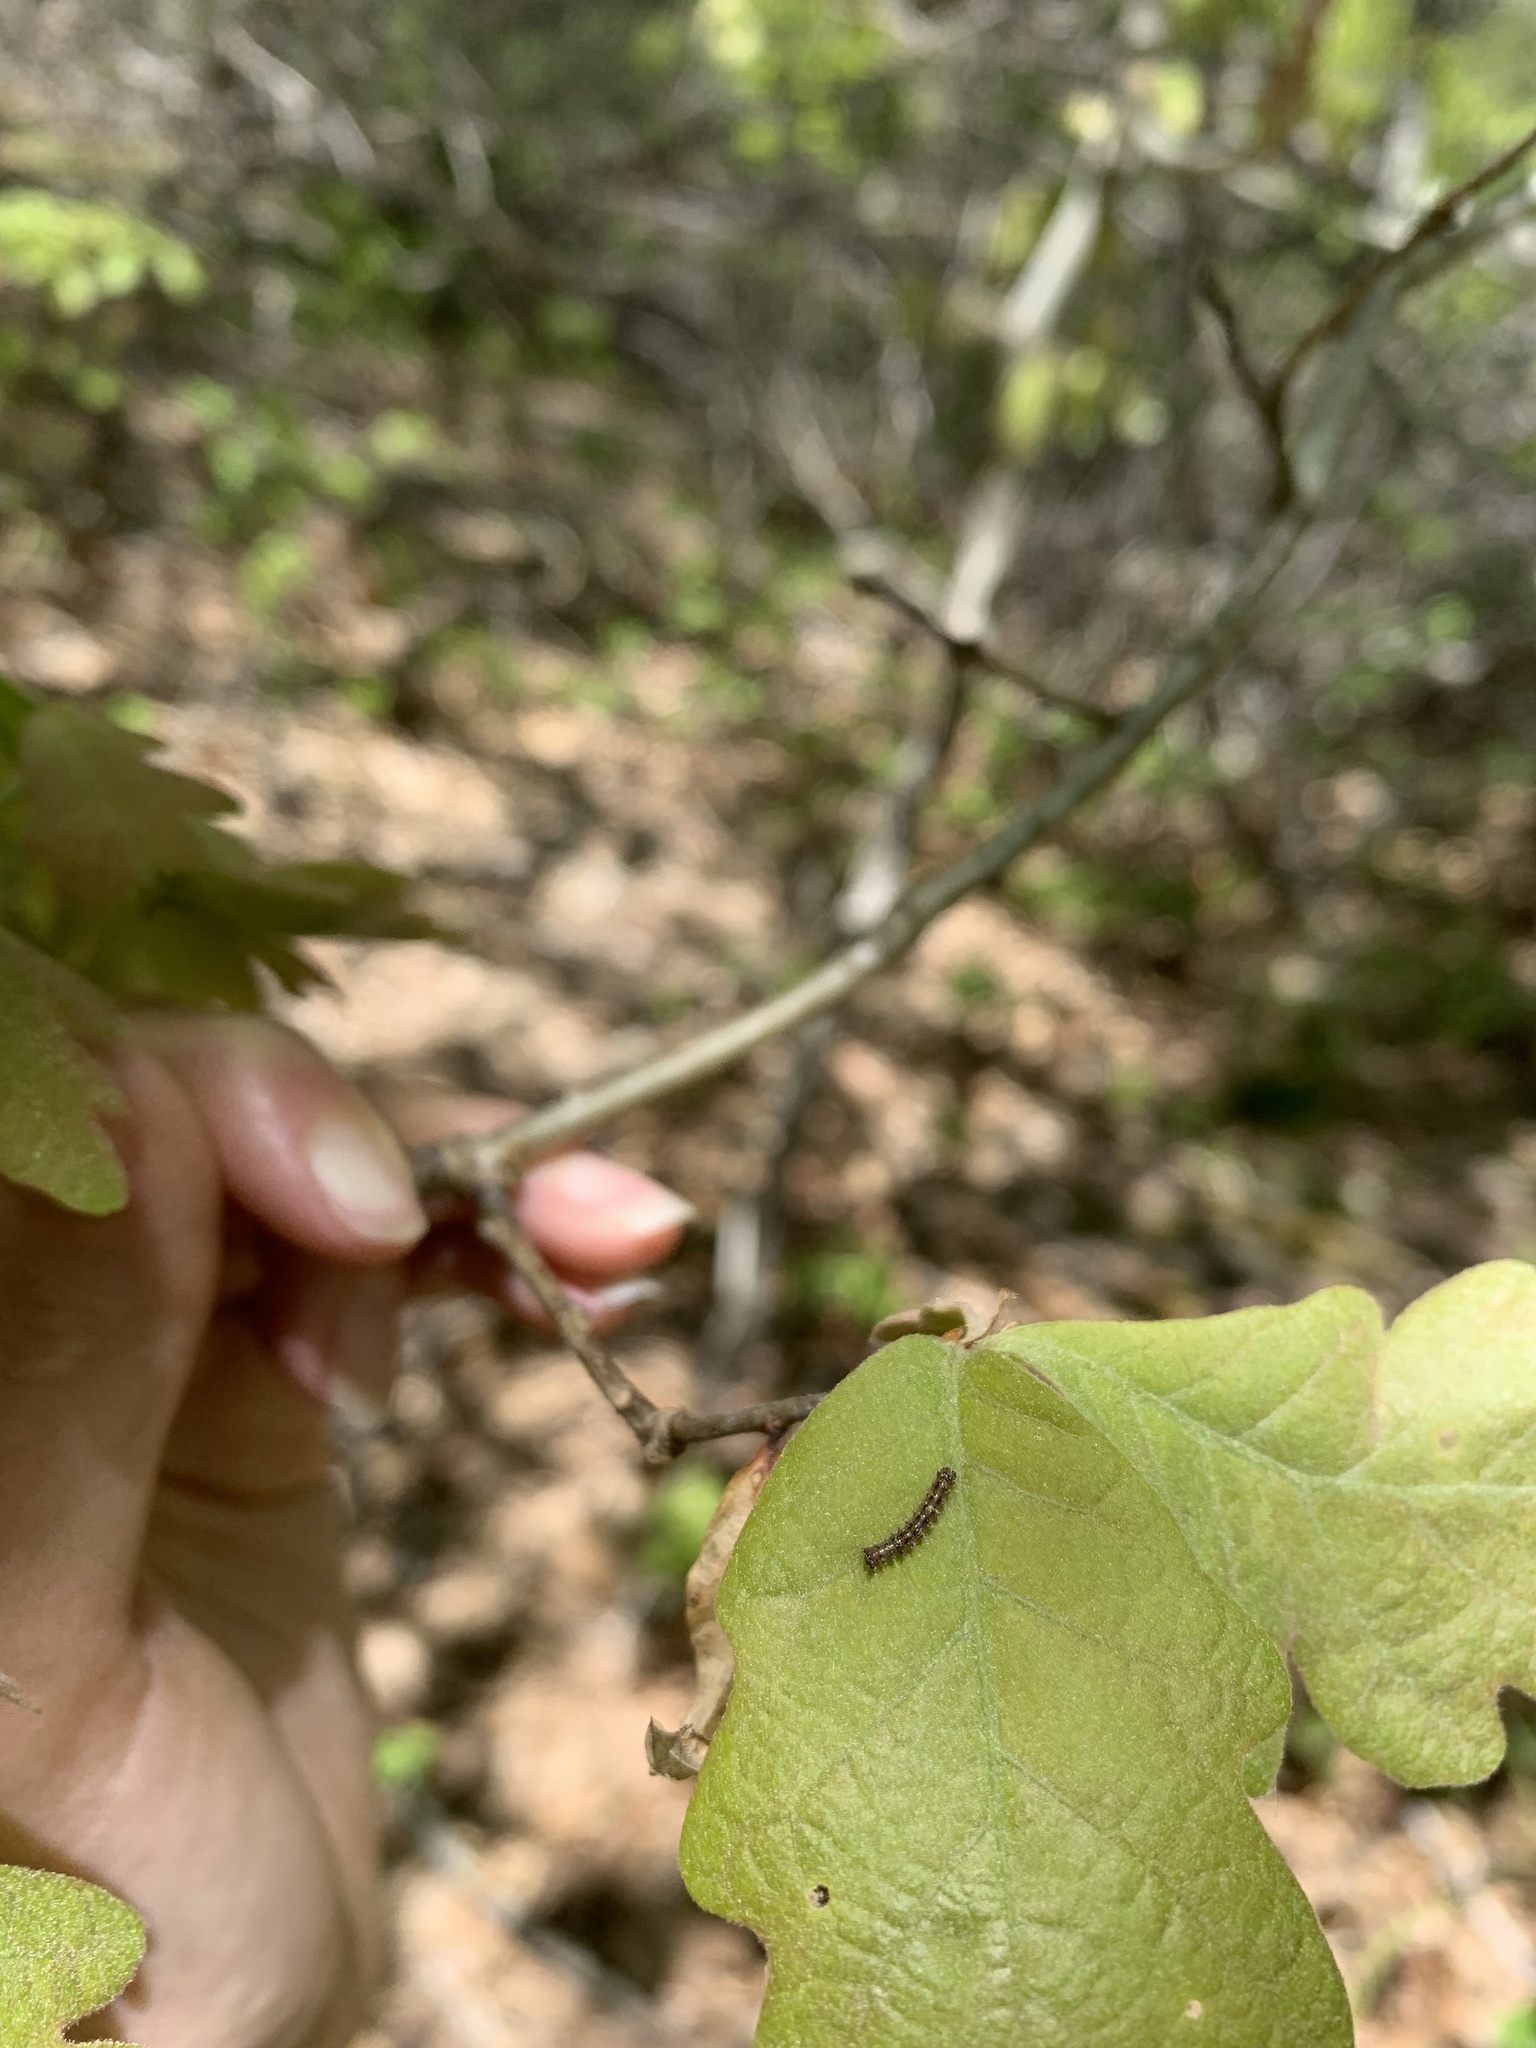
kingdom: Animalia
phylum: Arthropoda
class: Insecta
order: Lepidoptera
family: Erebidae
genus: Lymantria
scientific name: Lymantria dispar
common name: Gypsy moth
